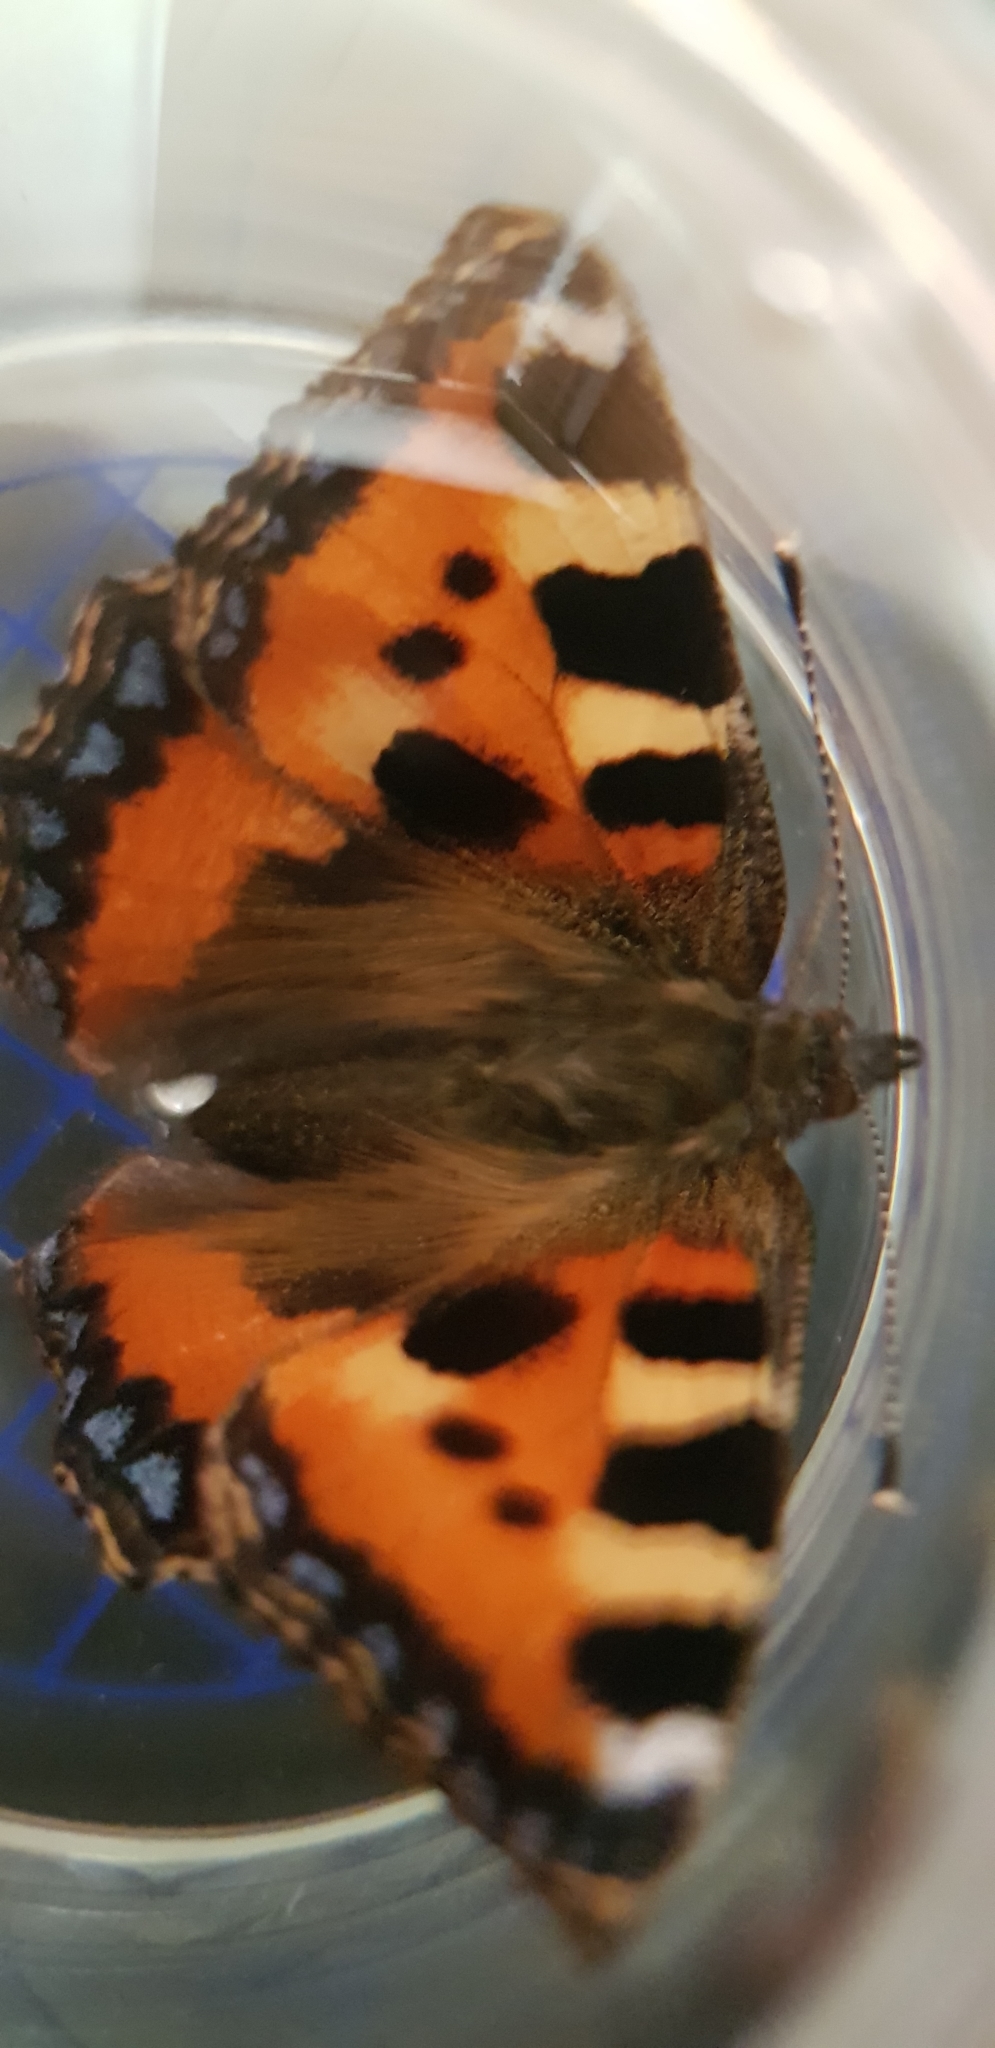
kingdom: Animalia
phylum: Arthropoda
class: Insecta
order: Lepidoptera
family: Nymphalidae
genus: Aglais
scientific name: Aglais urticae
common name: Small tortoiseshell
